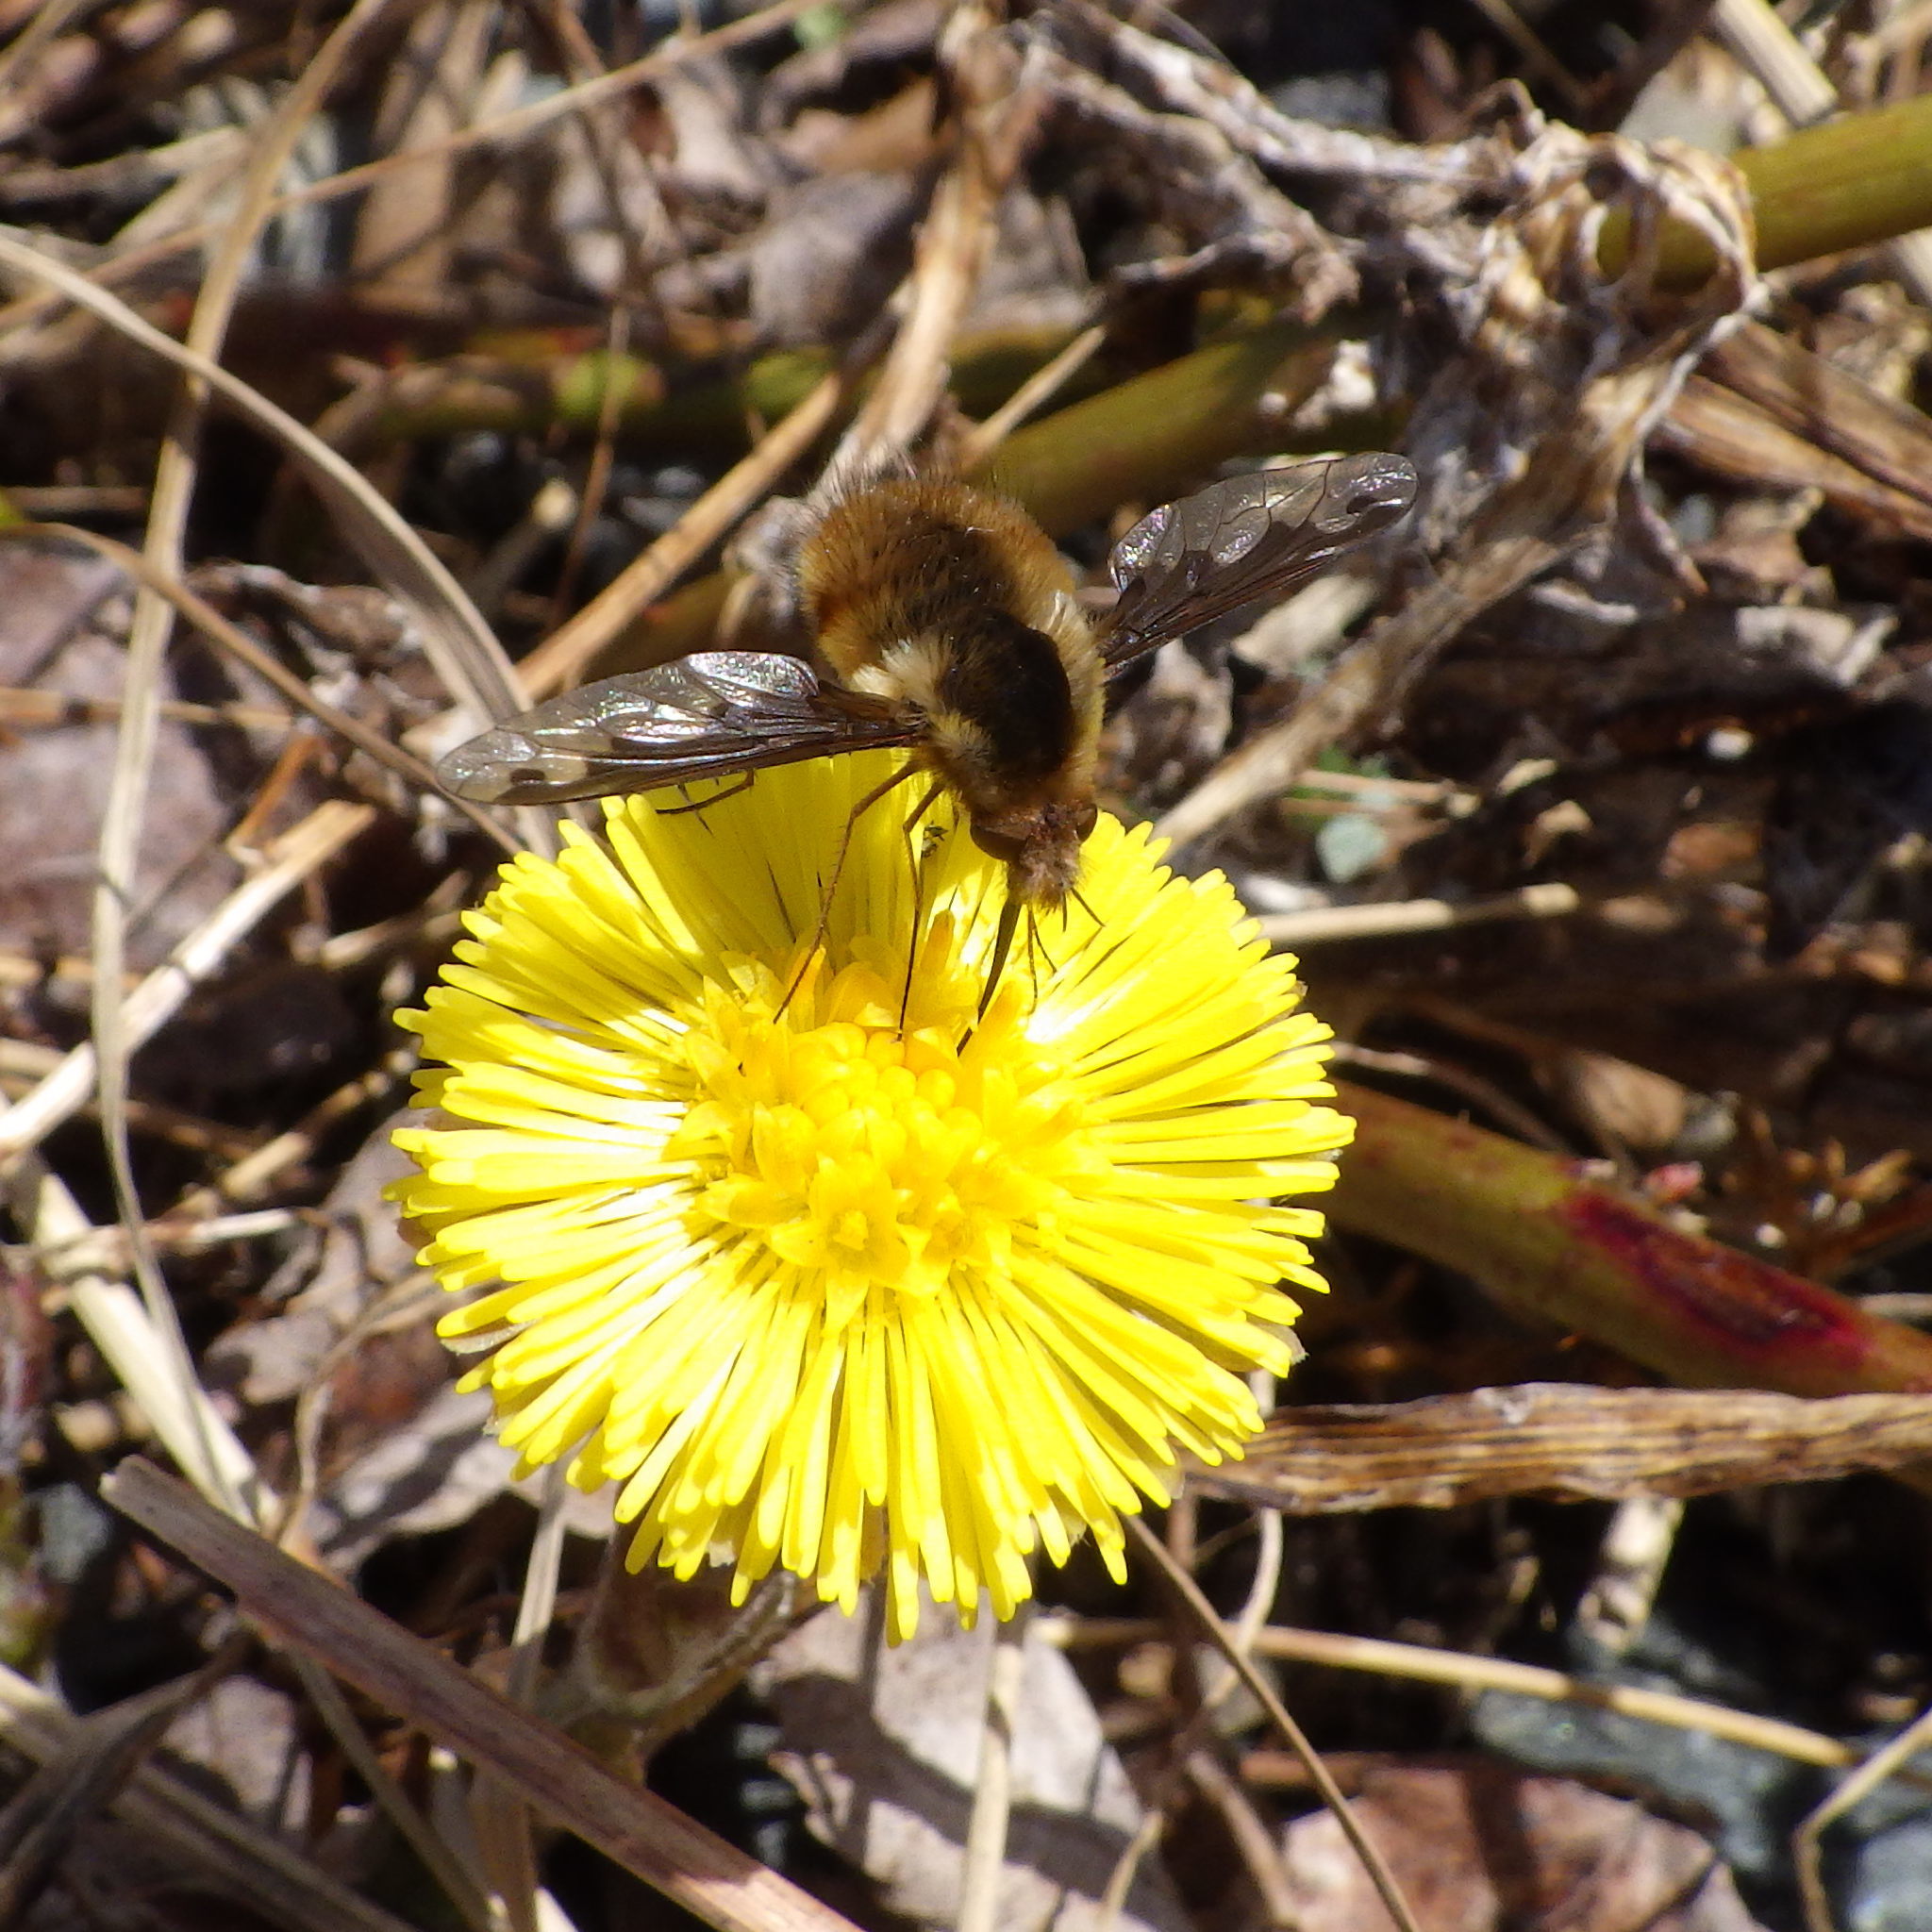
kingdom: Animalia
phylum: Arthropoda
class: Insecta
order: Diptera
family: Bombyliidae
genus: Bombylius
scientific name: Bombylius major
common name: Bee fly
